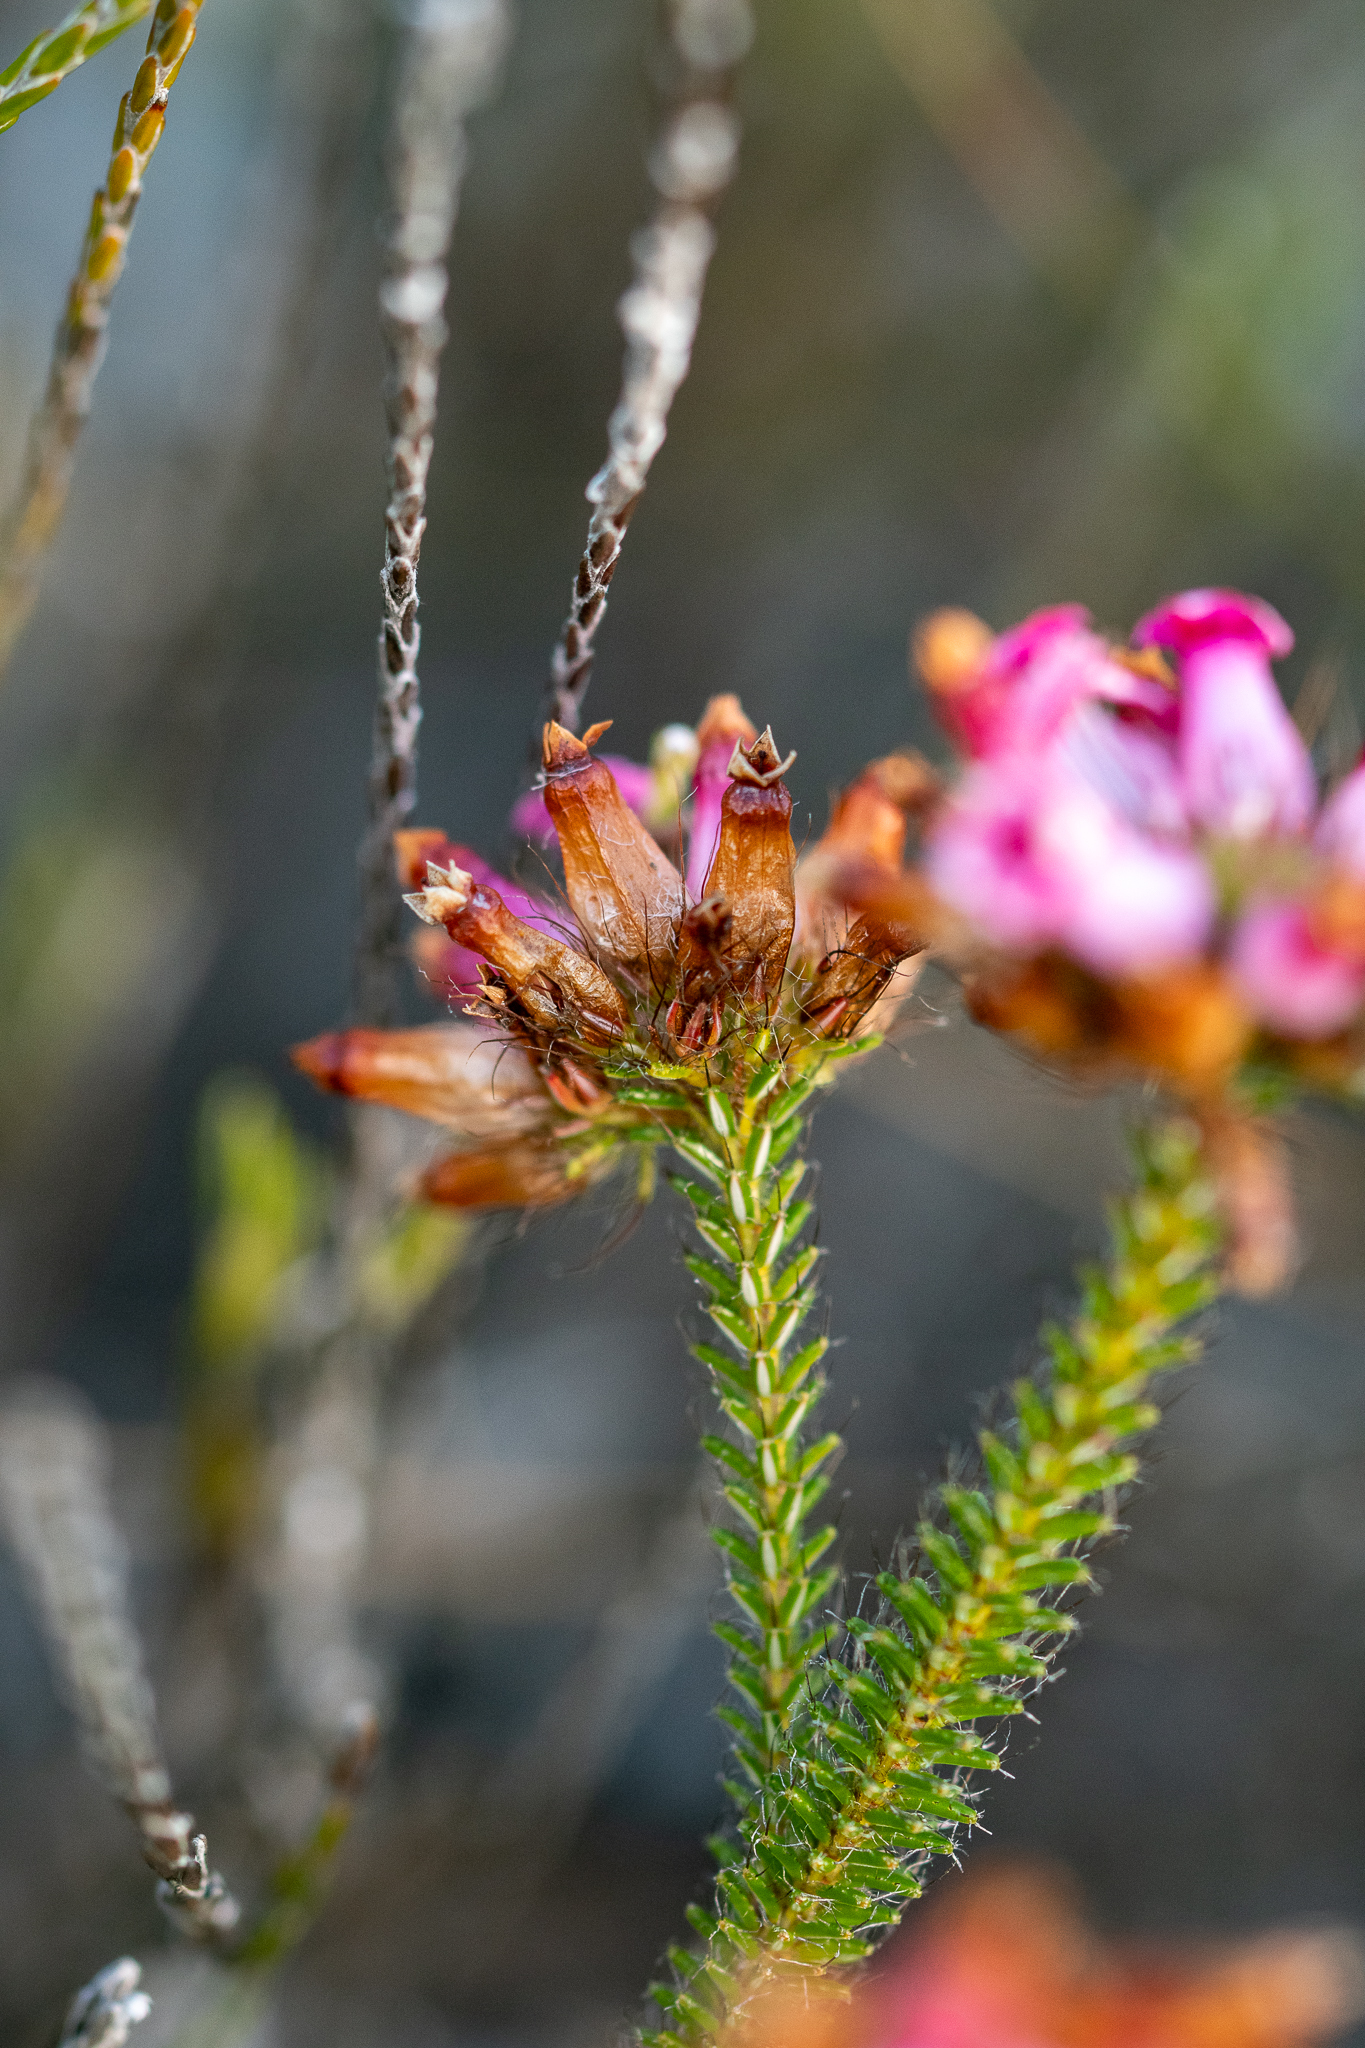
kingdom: Plantae
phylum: Tracheophyta
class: Magnoliopsida
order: Ericales
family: Ericaceae
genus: Erica
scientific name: Erica gysbertii
